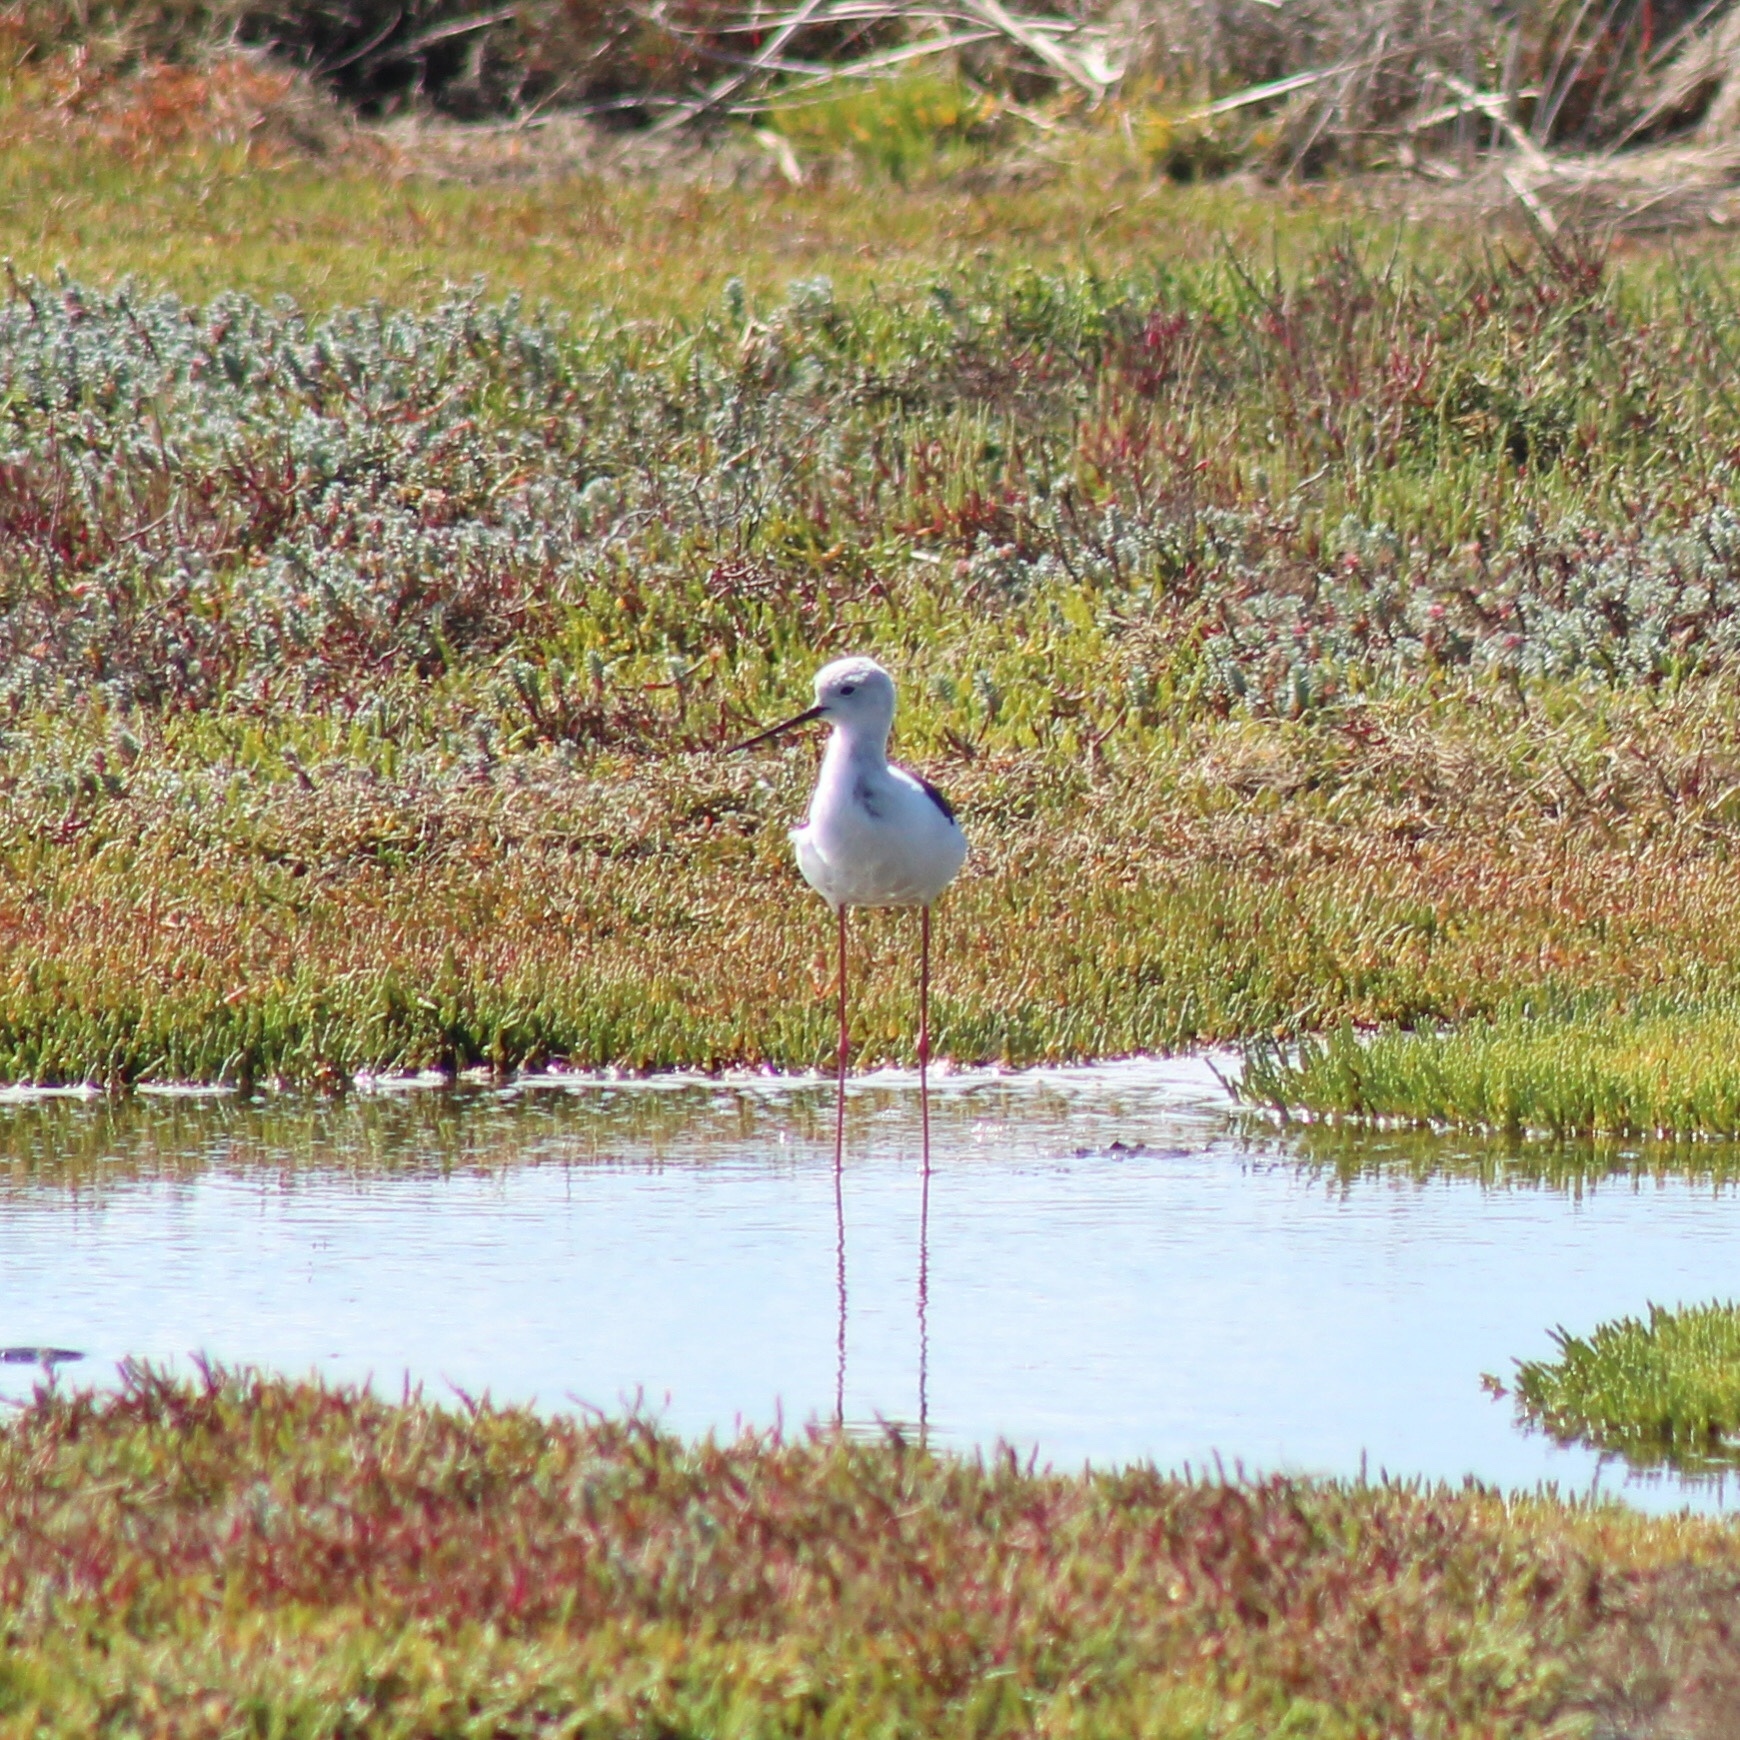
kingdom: Animalia
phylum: Chordata
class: Aves
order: Charadriiformes
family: Recurvirostridae
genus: Himantopus
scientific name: Himantopus himantopus
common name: Black-winged stilt
